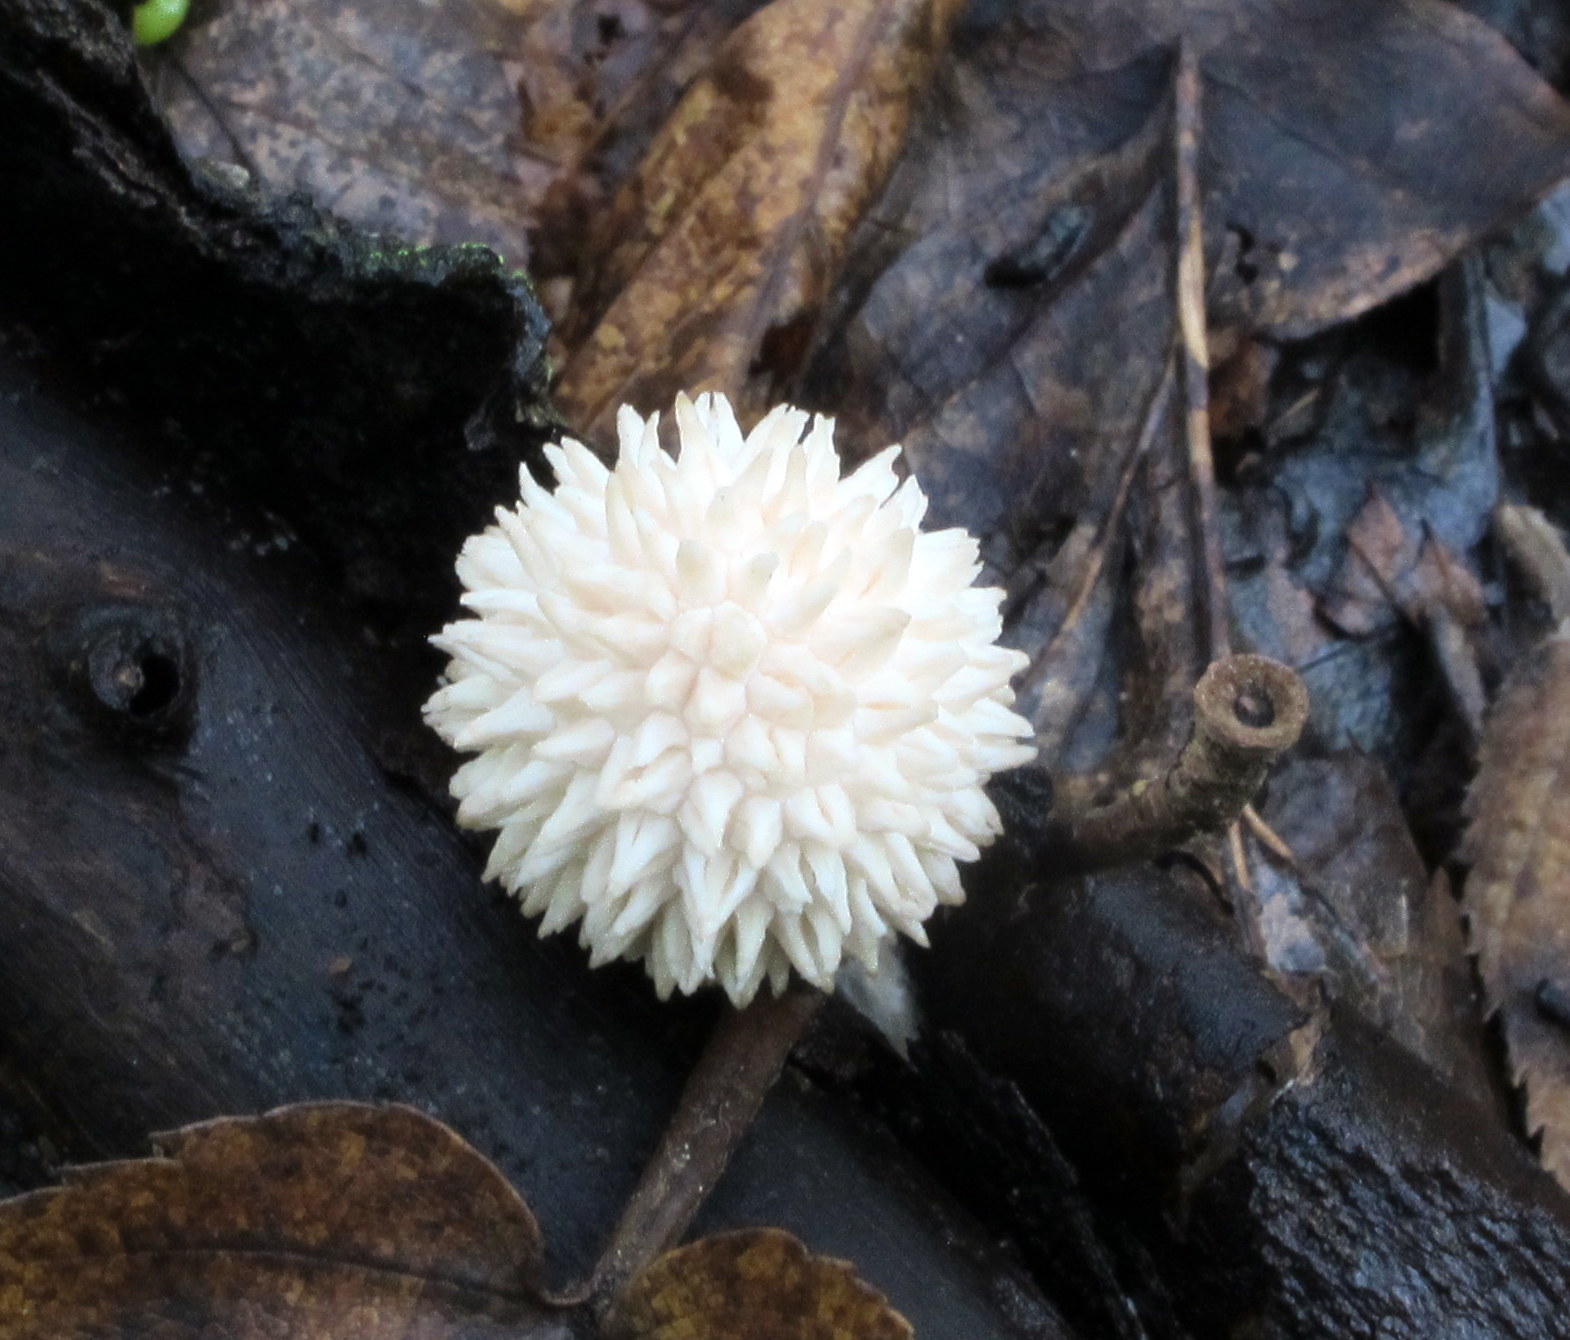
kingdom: Fungi
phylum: Basidiomycota
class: Agaricomycetes
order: Agaricales
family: Lycoperdaceae
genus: Lycoperdon
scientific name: Lycoperdon curtisii
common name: Curtis's puffball
